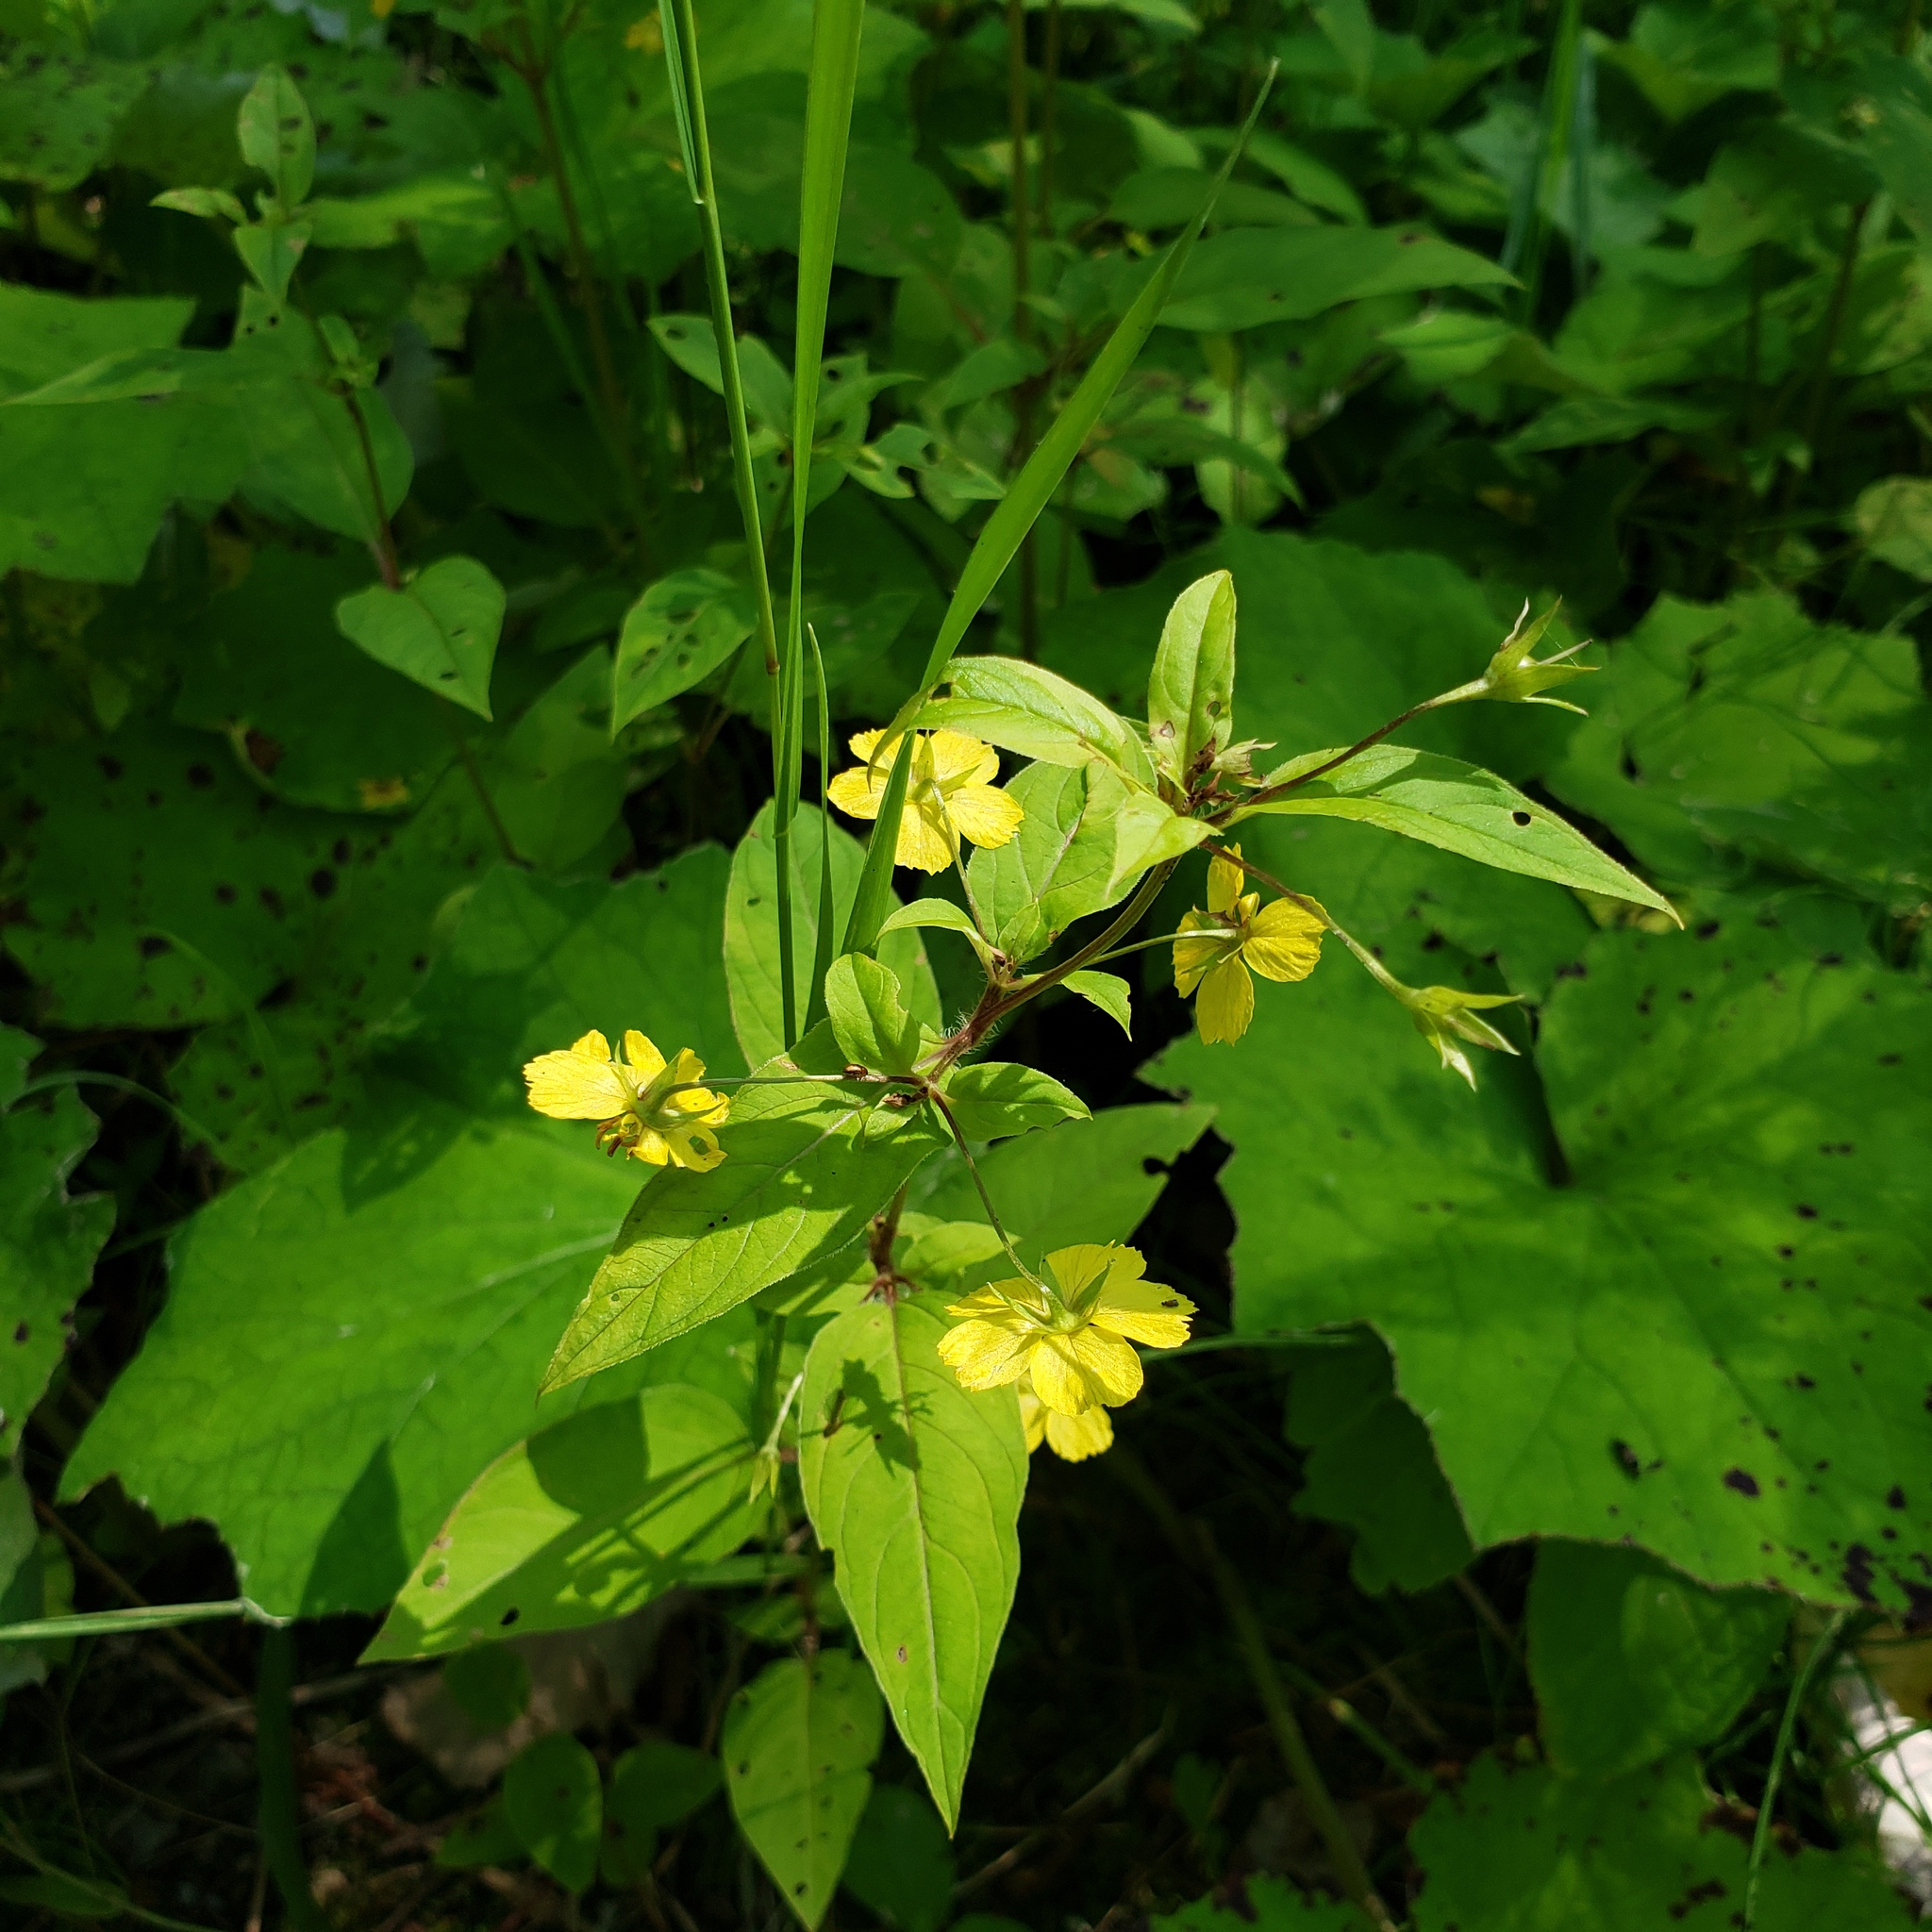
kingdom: Plantae
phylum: Tracheophyta
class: Magnoliopsida
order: Ericales
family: Primulaceae
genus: Lysimachia
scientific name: Lysimachia ciliata
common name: Fringed loosestrife
